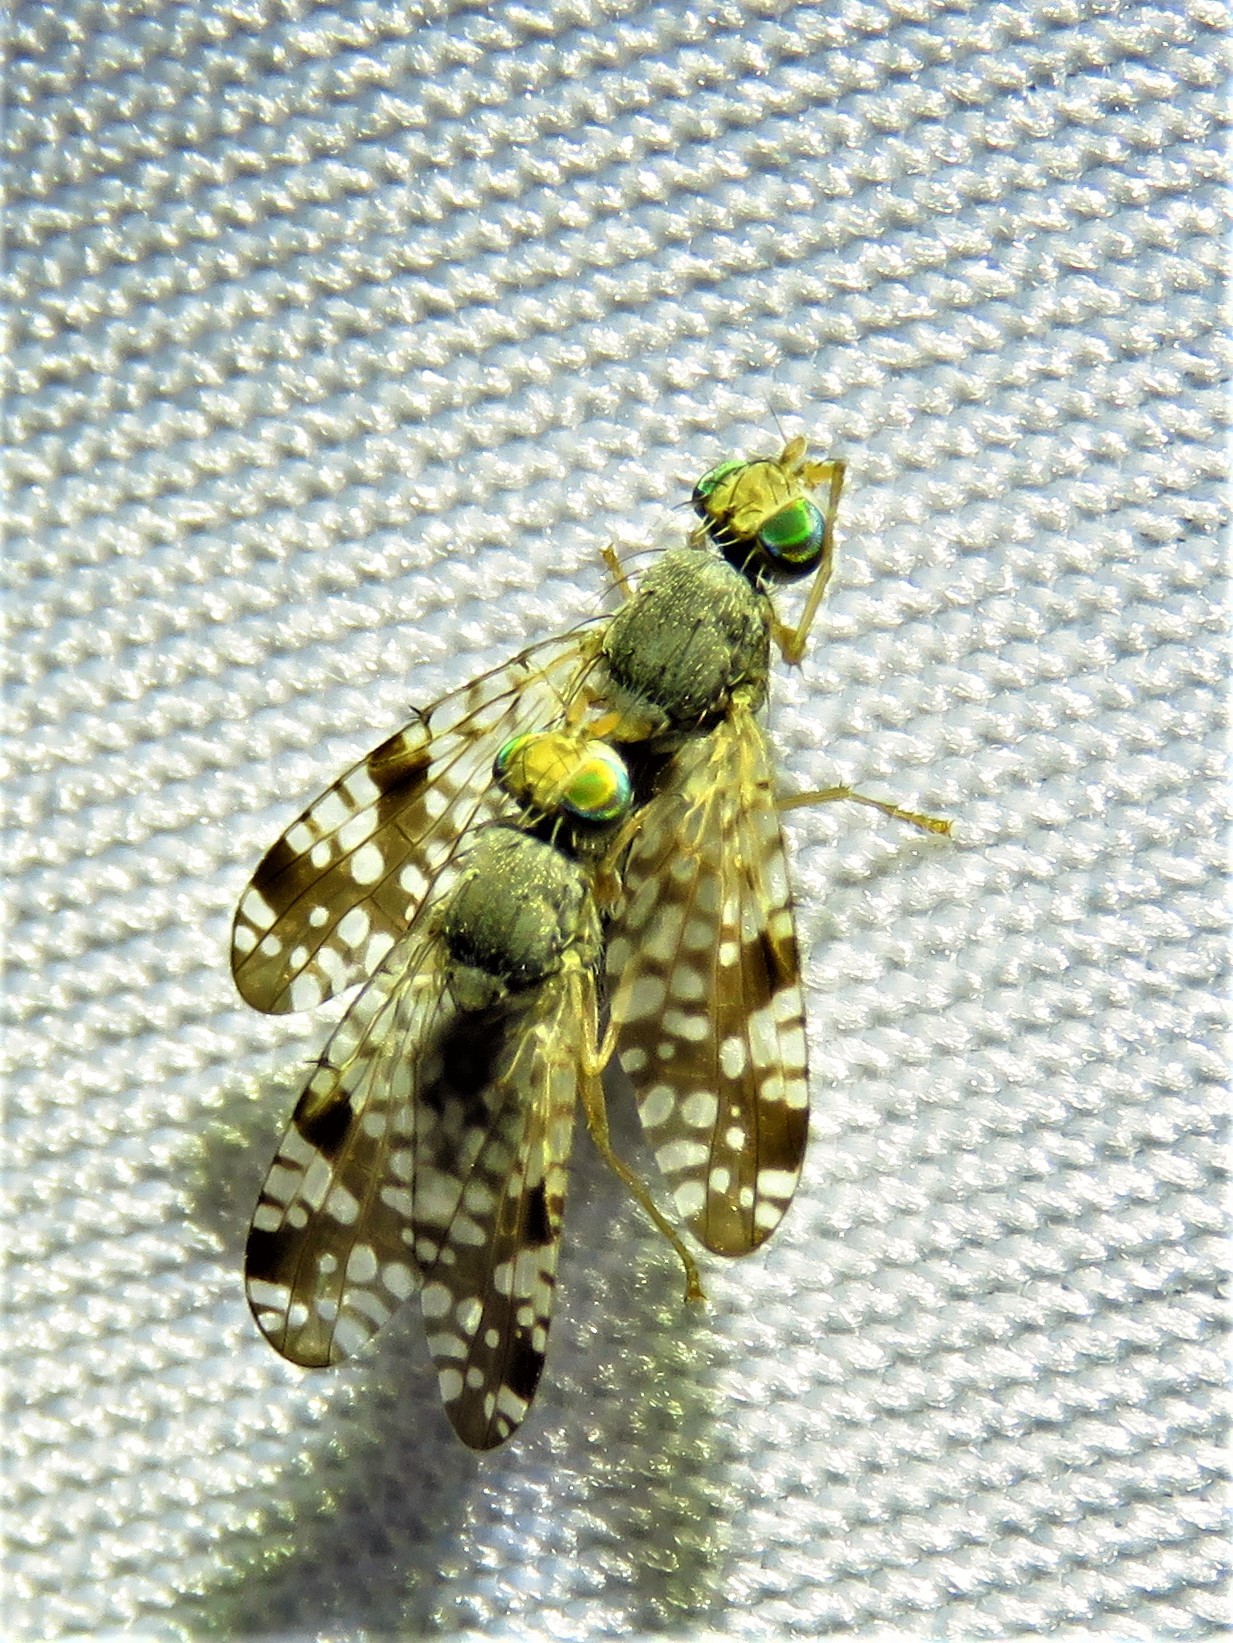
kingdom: Animalia
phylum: Arthropoda
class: Insecta
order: Diptera
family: Tephritidae
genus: Neotephritis
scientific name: Neotephritis finalis
